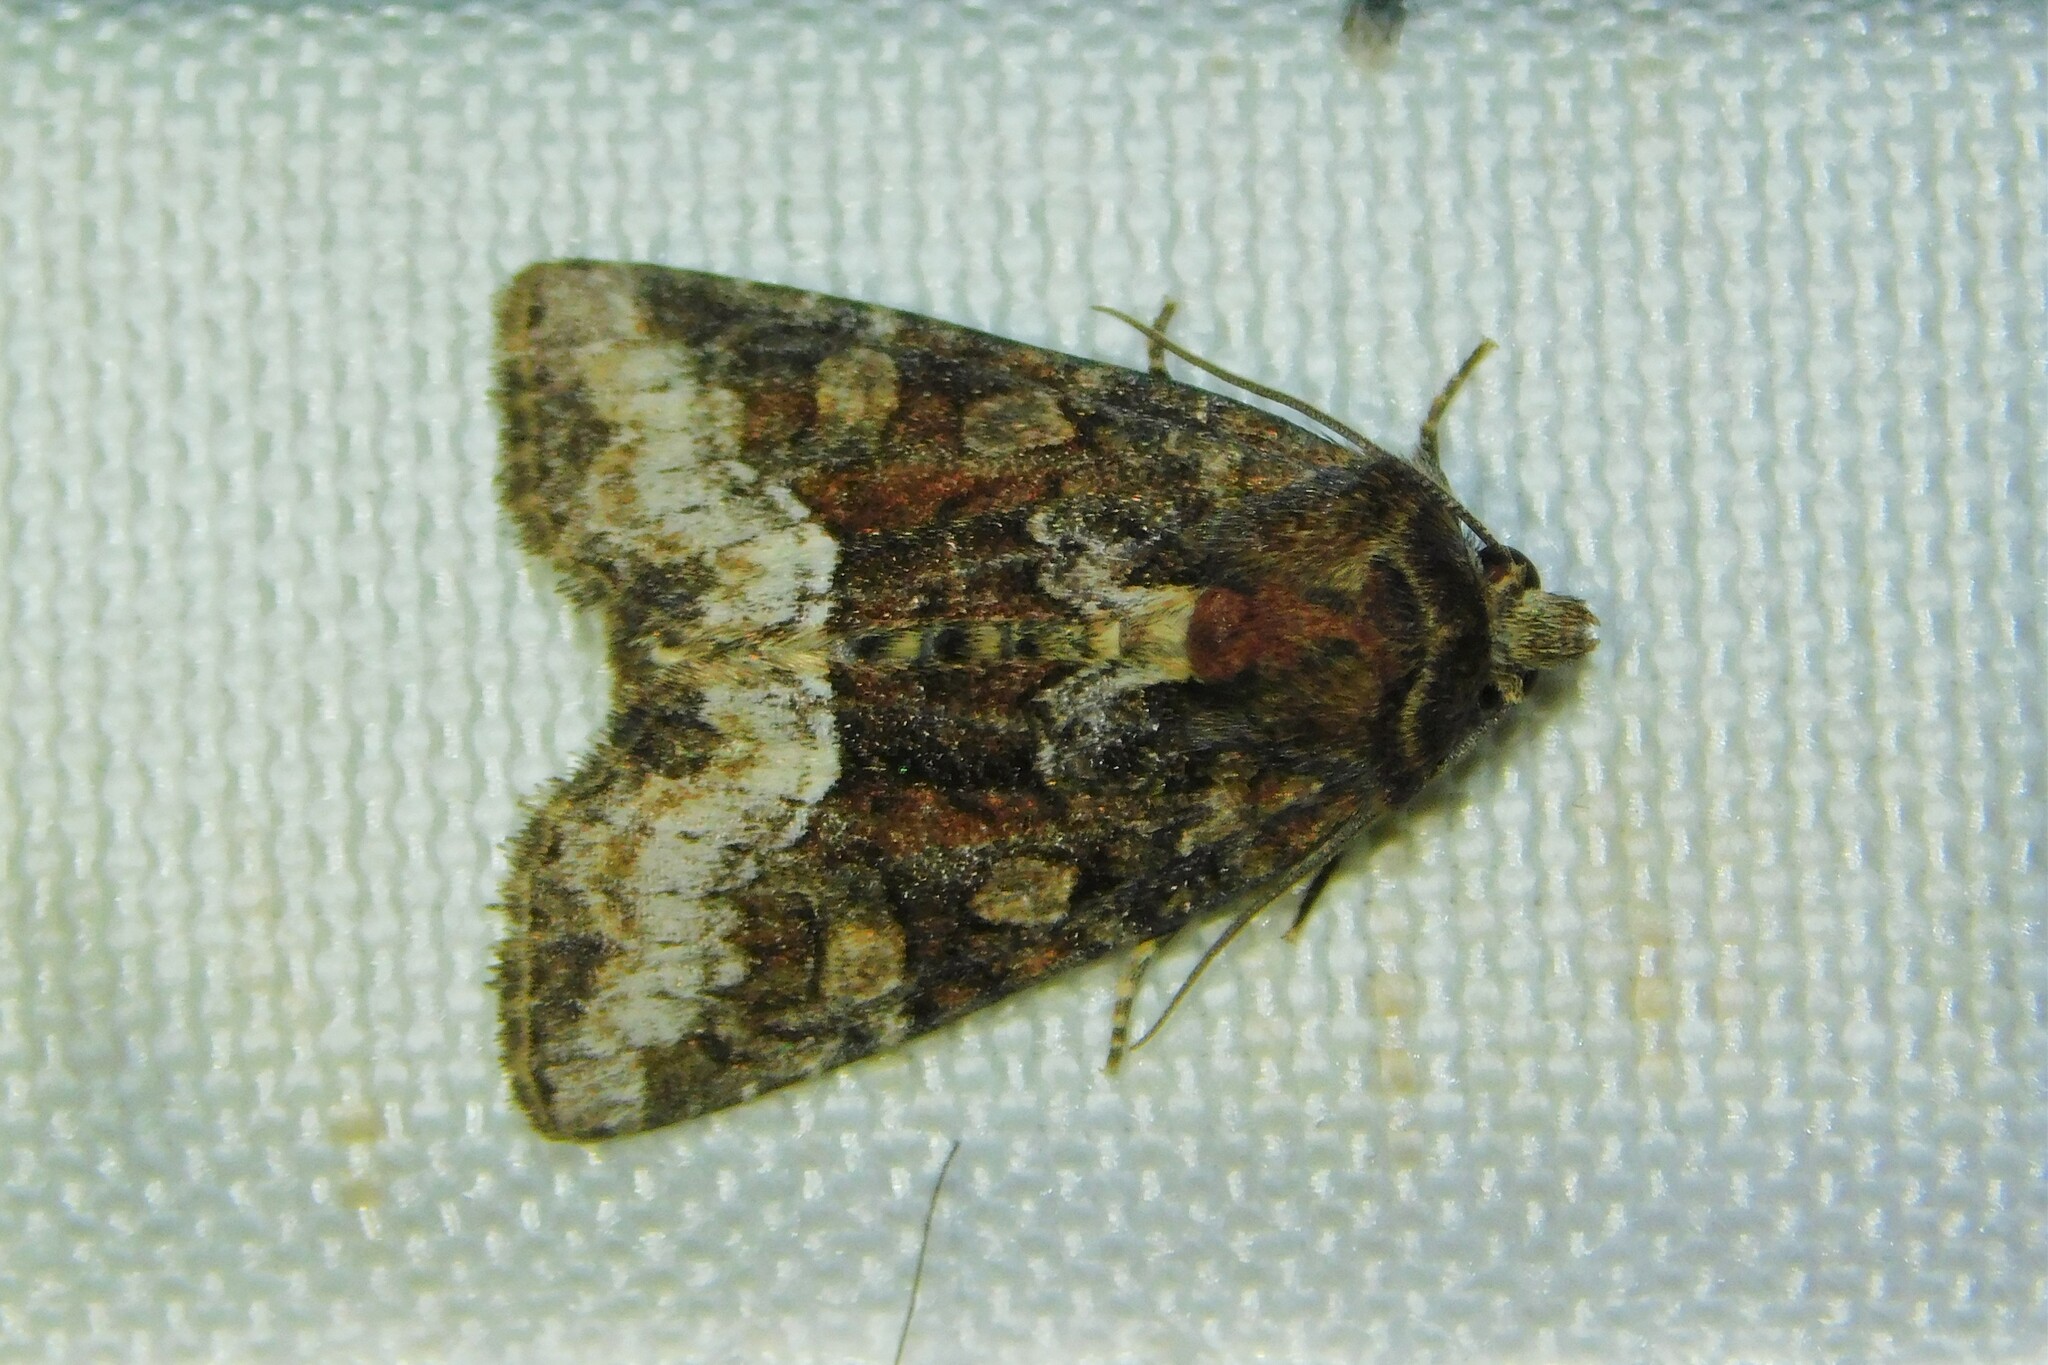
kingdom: Animalia
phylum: Arthropoda
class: Insecta
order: Lepidoptera
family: Noctuidae
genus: Oligia
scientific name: Oligia versicolor
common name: Rufous minor
